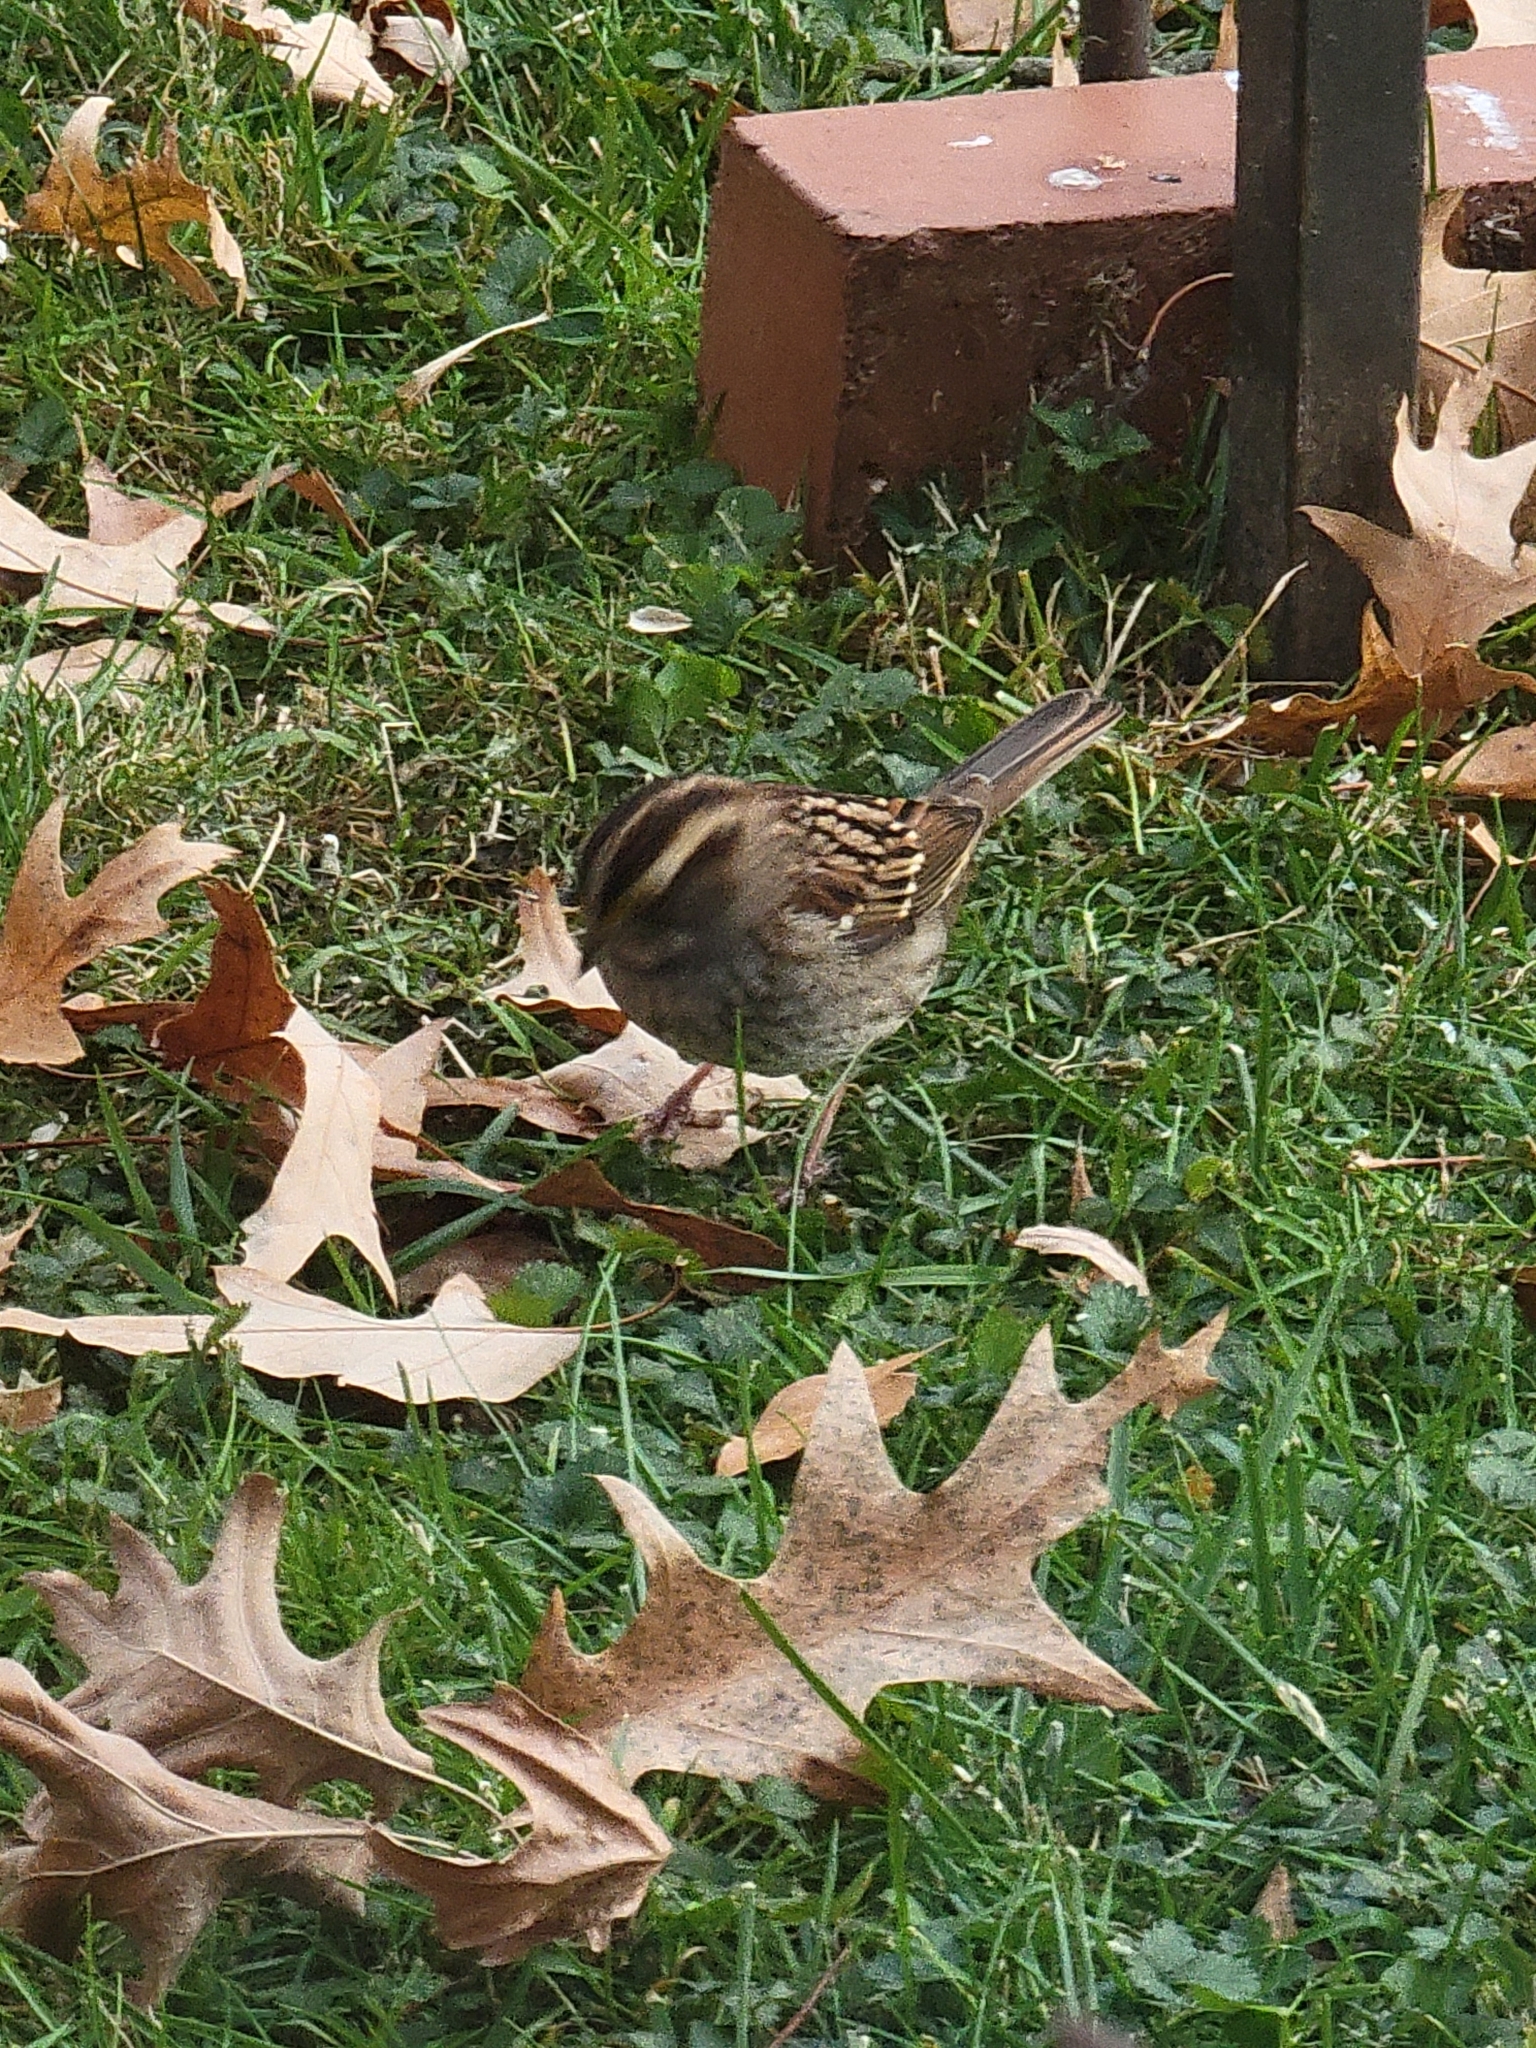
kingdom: Animalia
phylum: Chordata
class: Aves
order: Passeriformes
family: Passerellidae
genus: Zonotrichia
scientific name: Zonotrichia albicollis
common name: White-throated sparrow
